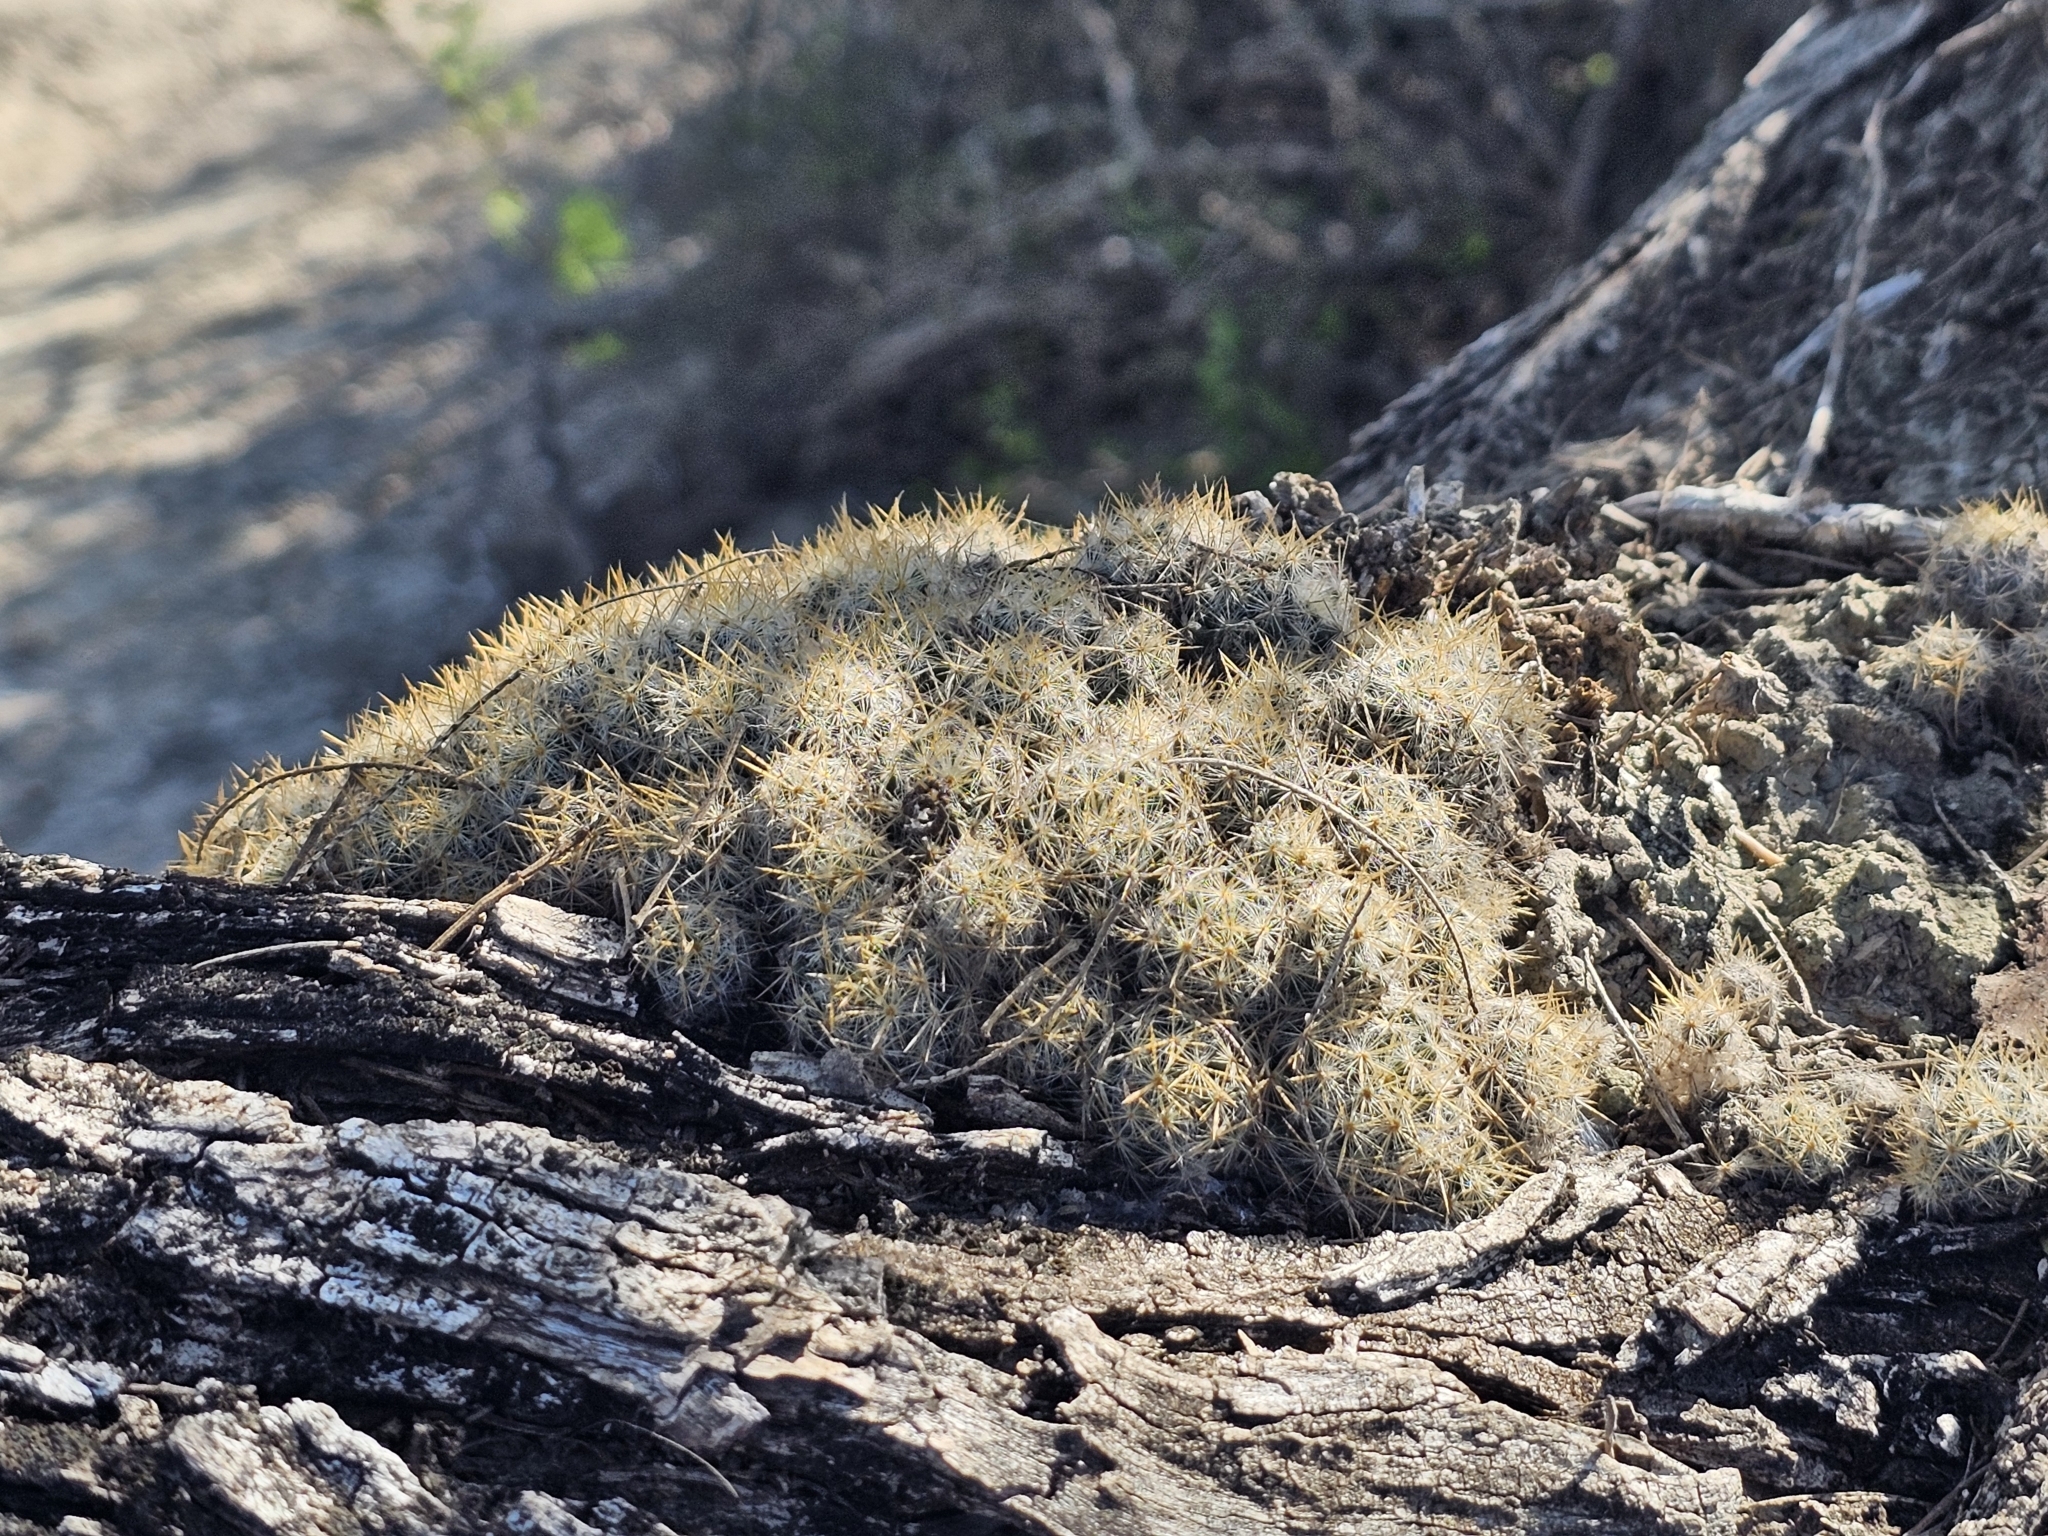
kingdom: Plantae
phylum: Tracheophyta
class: Magnoliopsida
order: Caryophyllales
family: Cactaceae
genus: Mammillaria
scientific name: Mammillaria prolifera
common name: Texas nipple cactus
